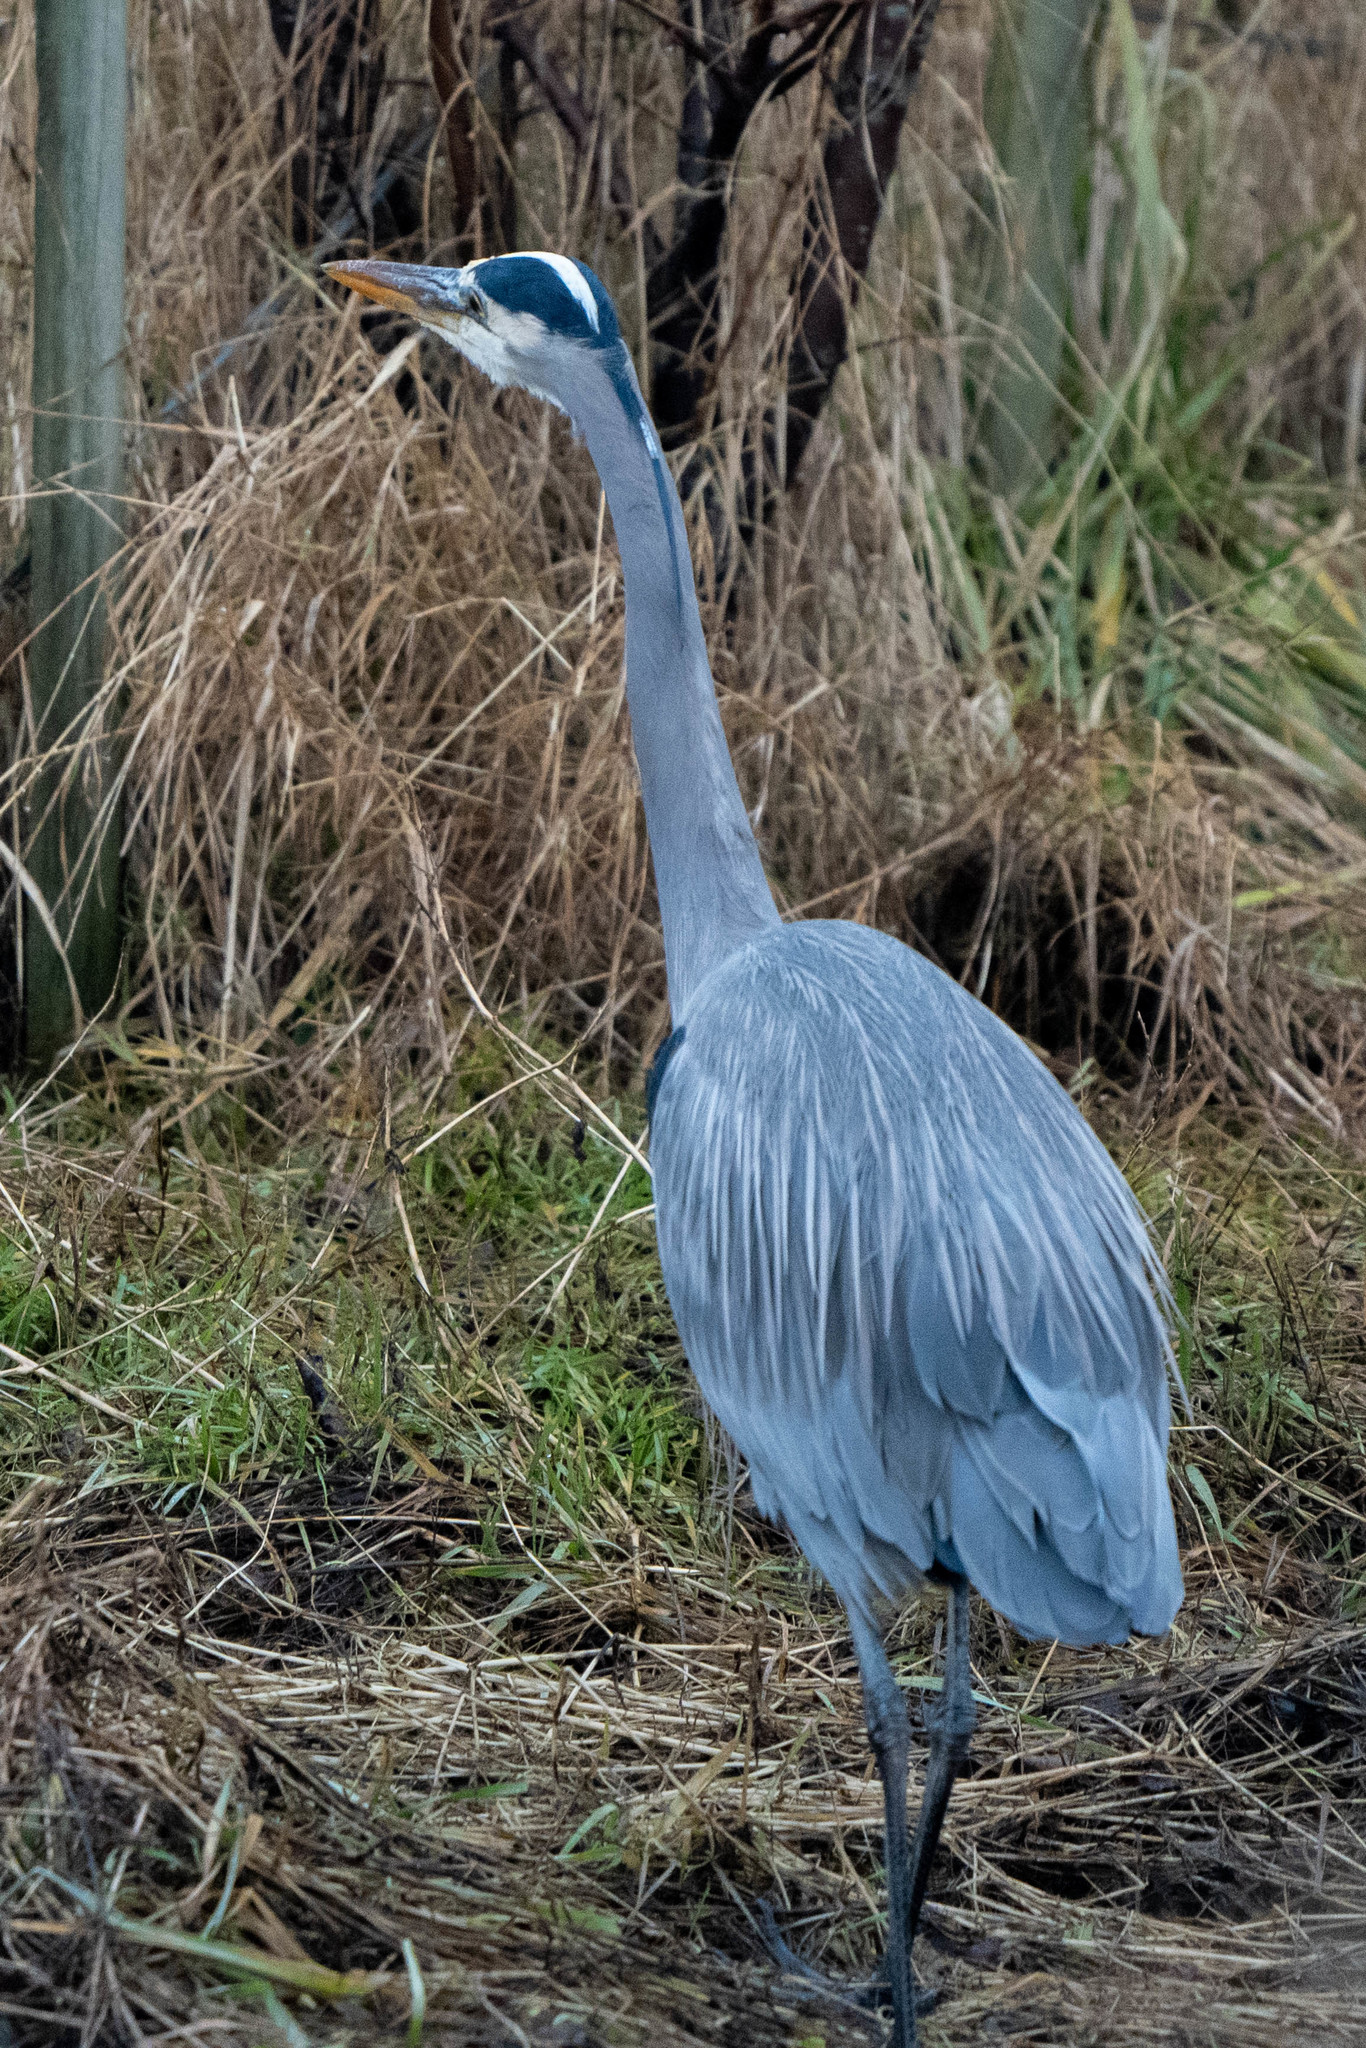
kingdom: Animalia
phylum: Chordata
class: Aves
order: Pelecaniformes
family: Ardeidae
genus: Ardea
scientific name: Ardea herodias
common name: Great blue heron
